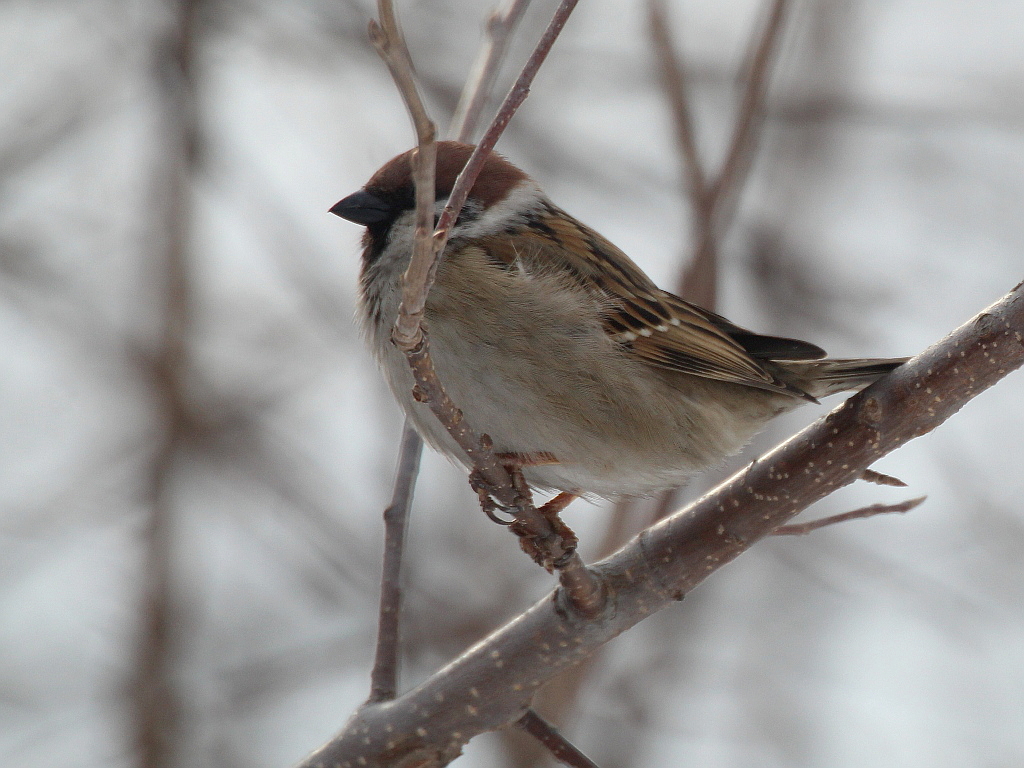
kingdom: Animalia
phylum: Chordata
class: Aves
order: Passeriformes
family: Passeridae
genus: Passer
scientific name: Passer montanus
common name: Eurasian tree sparrow
